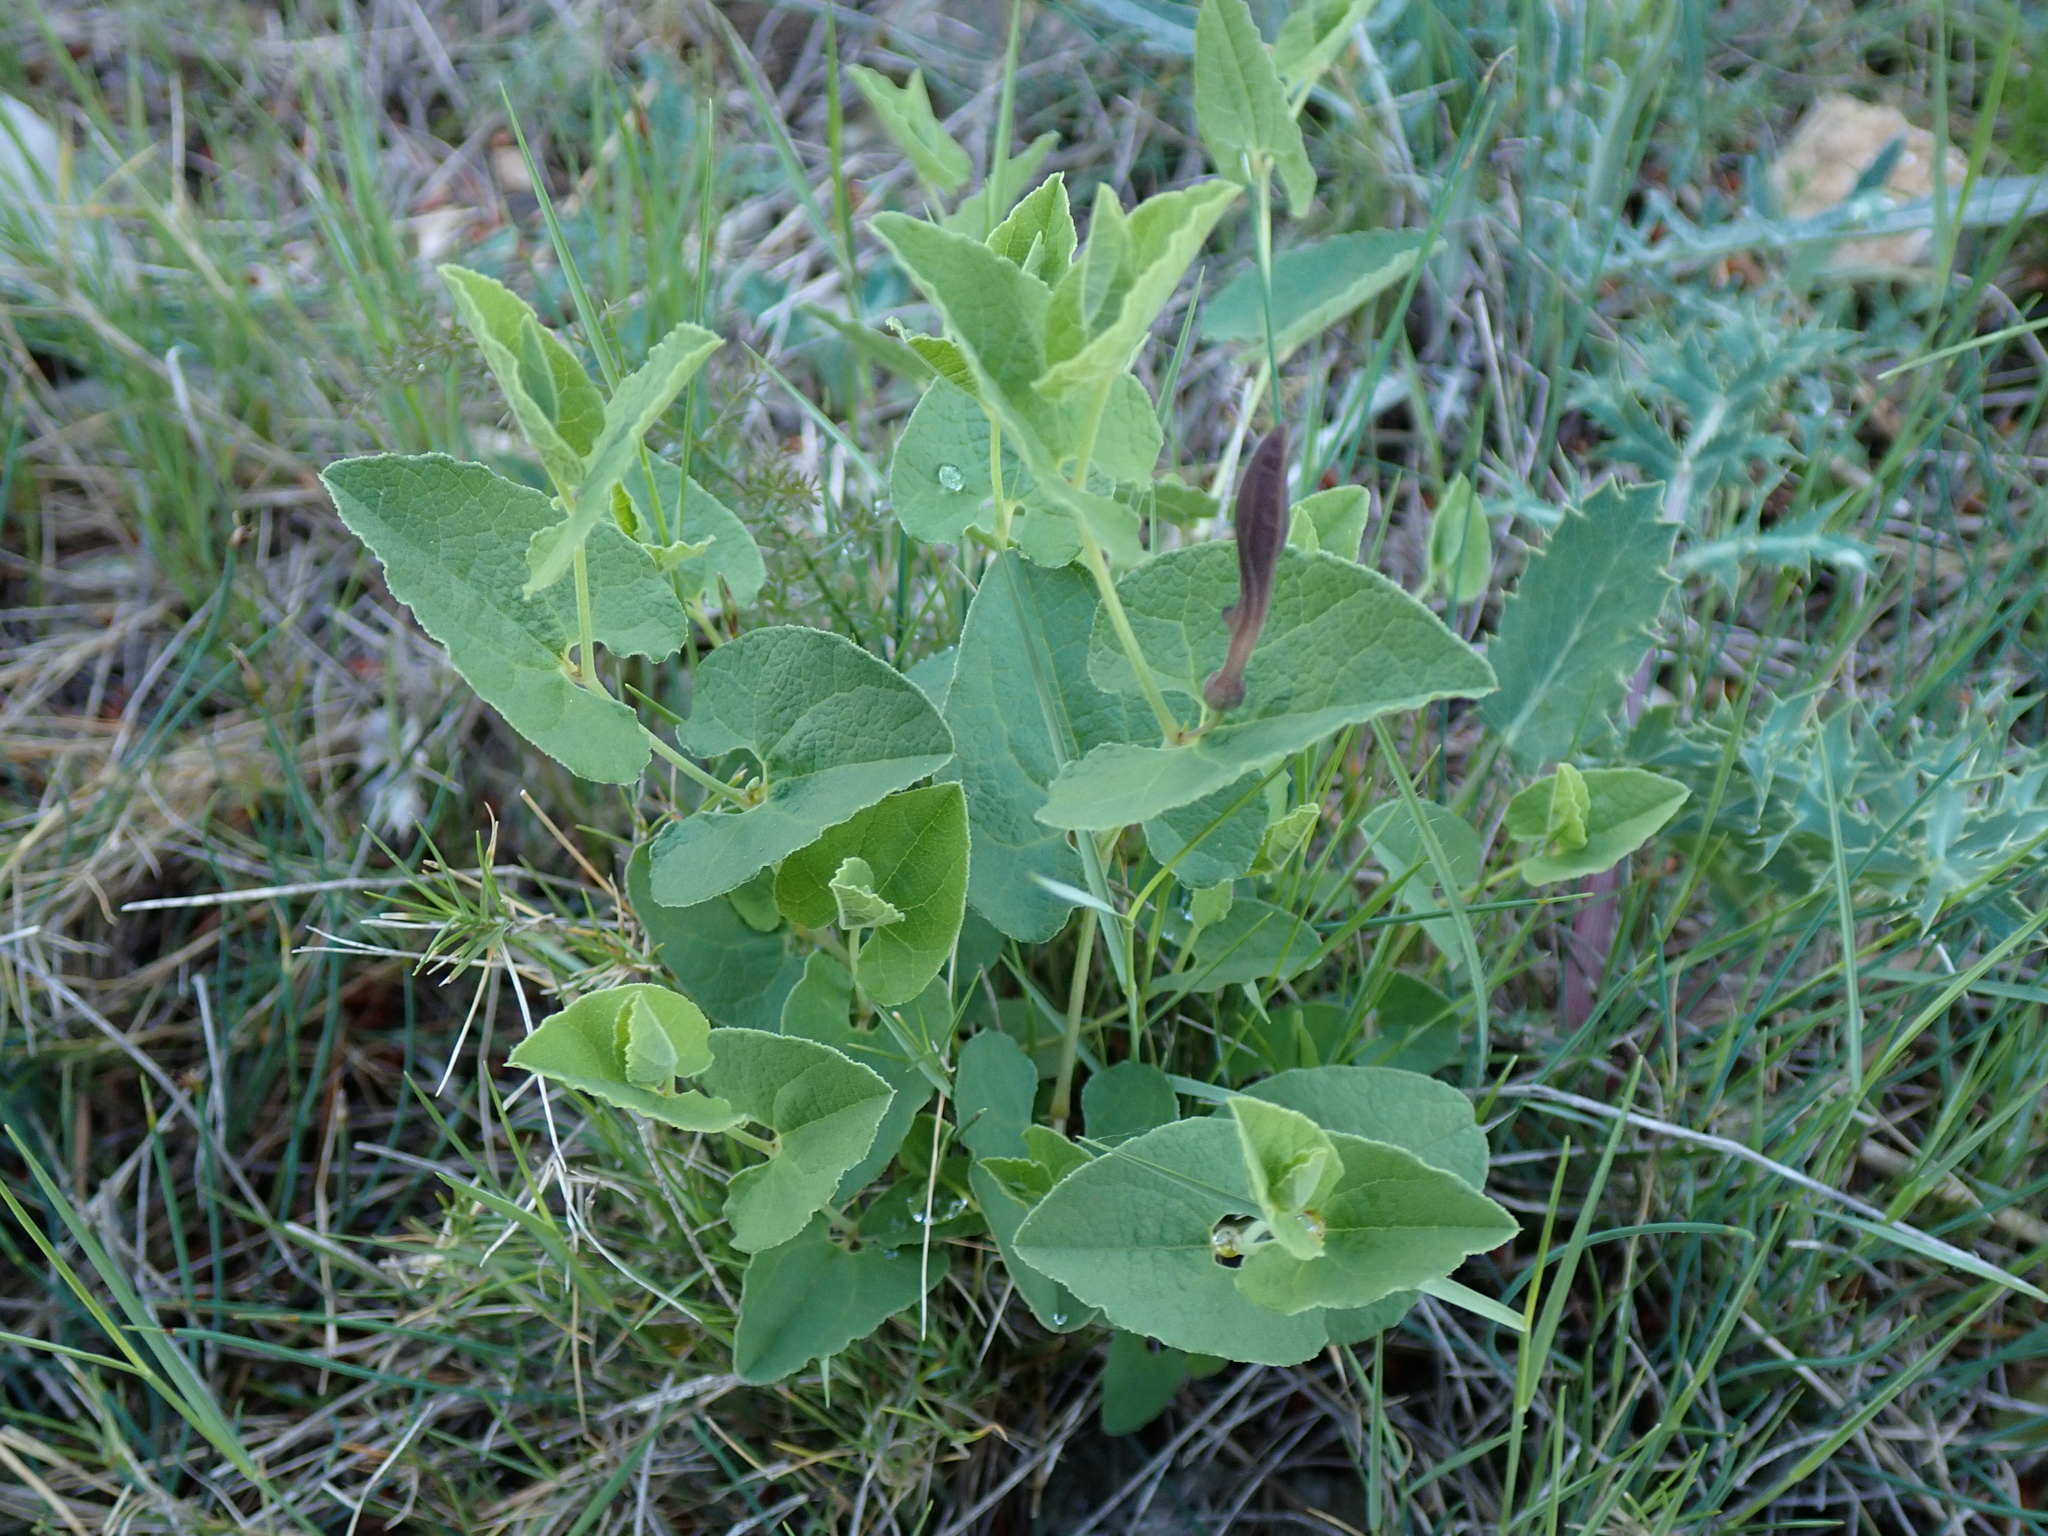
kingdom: Plantae
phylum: Tracheophyta
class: Magnoliopsida
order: Piperales
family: Aristolochiaceae
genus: Aristolochia
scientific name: Aristolochia pistolochia
